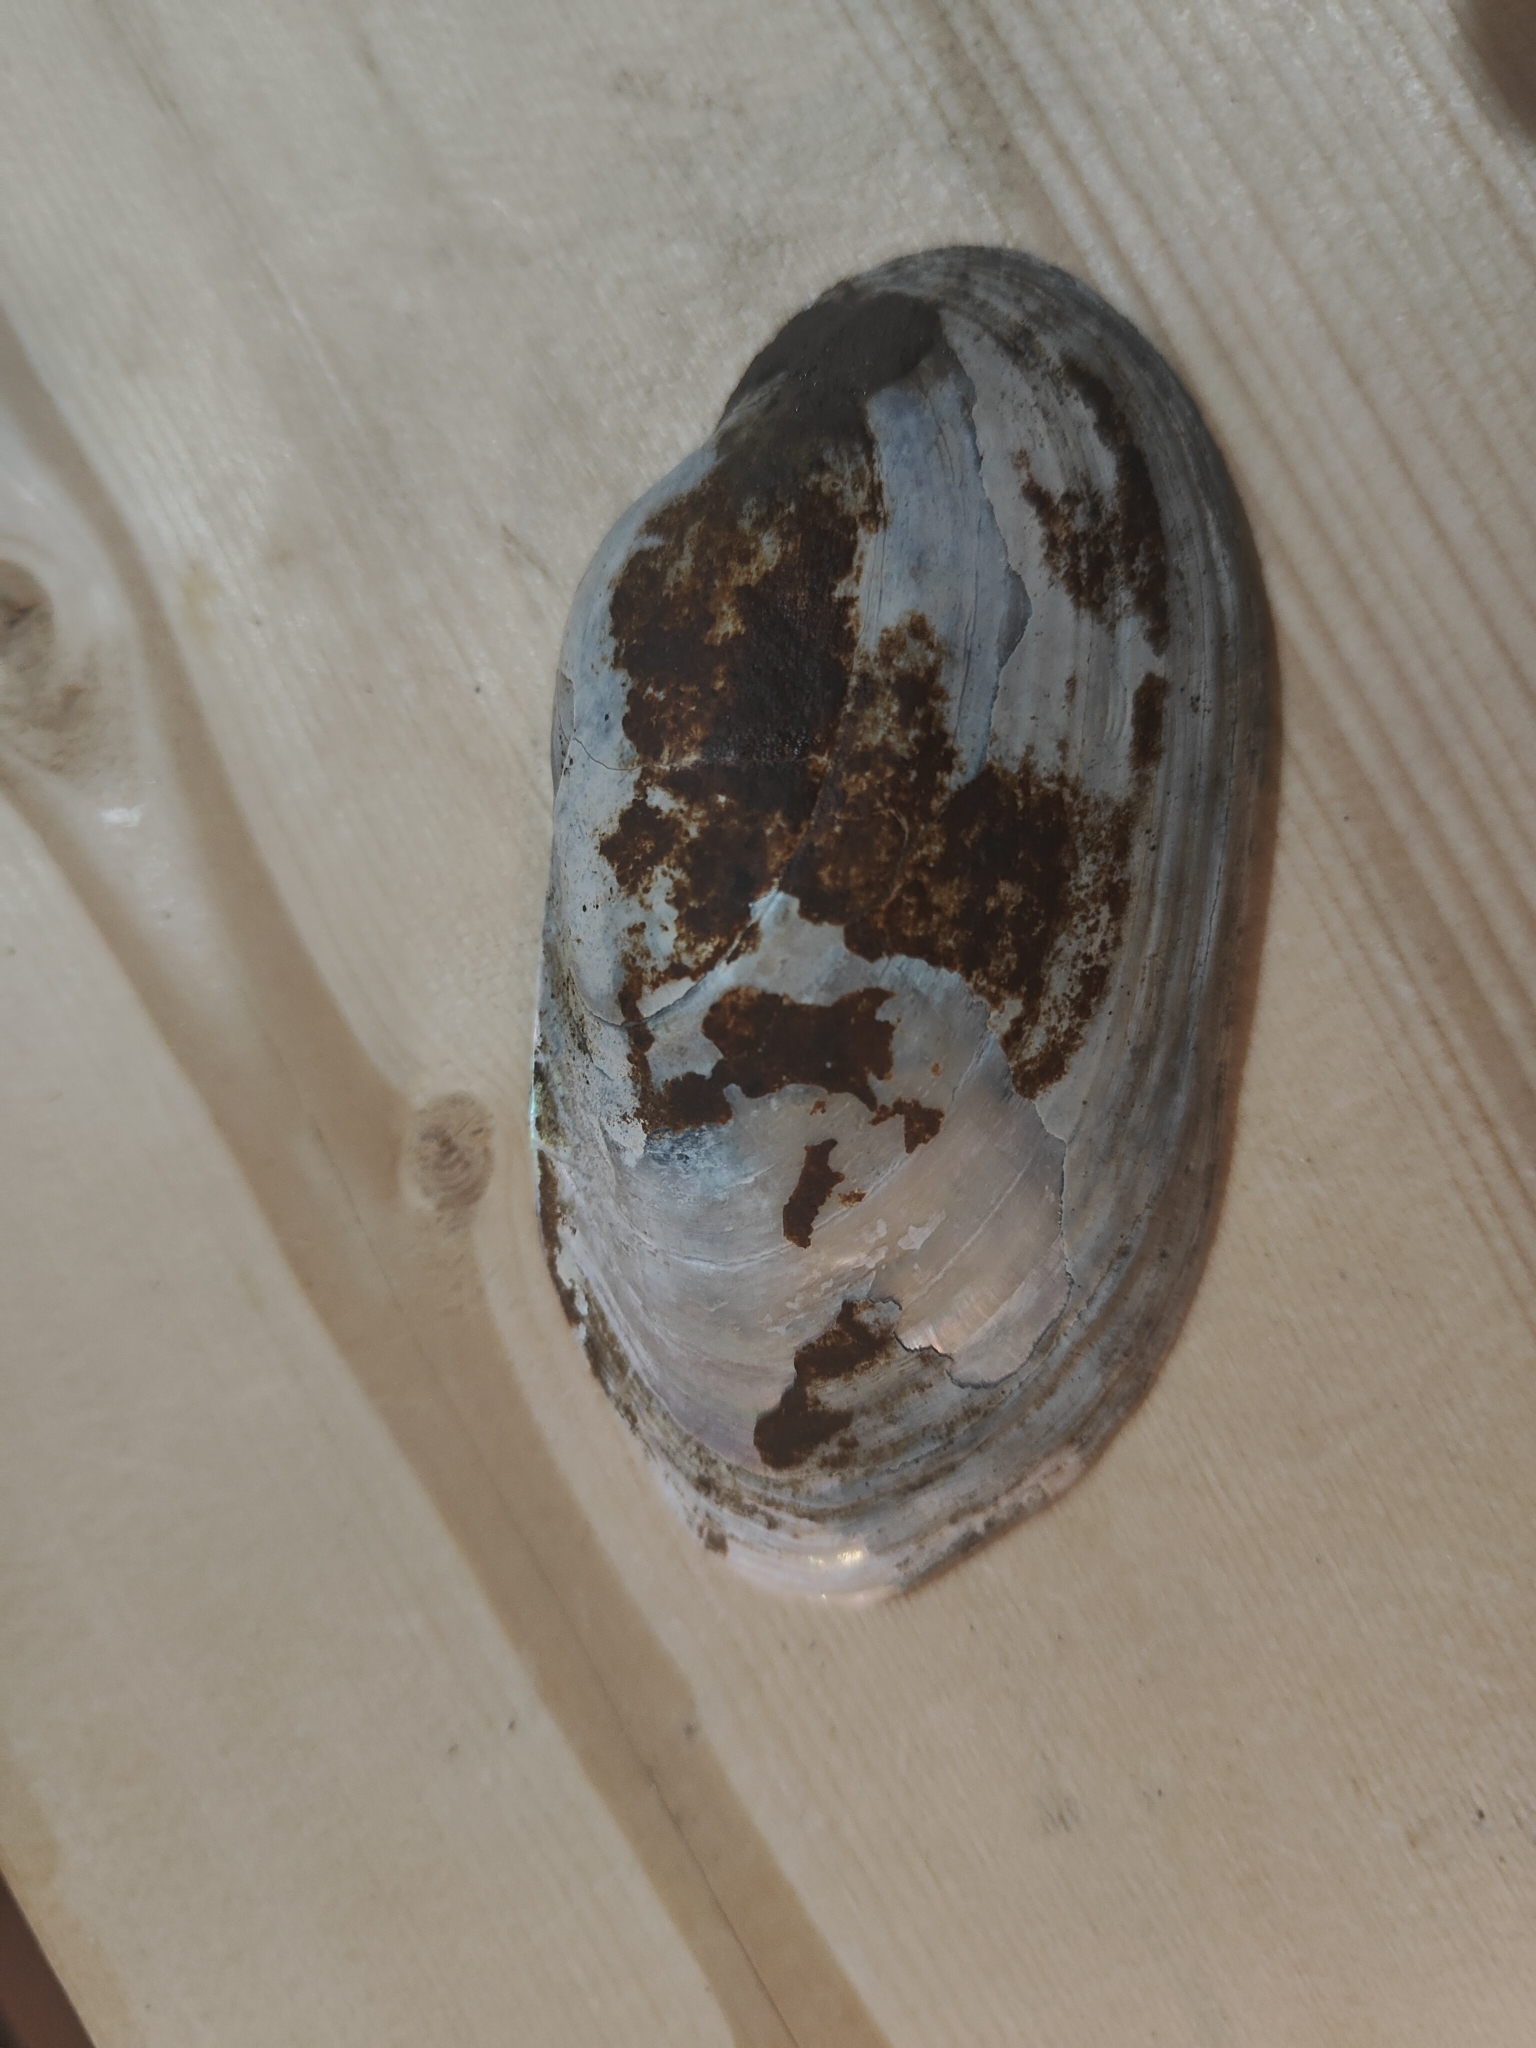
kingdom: Animalia
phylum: Mollusca
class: Bivalvia
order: Unionida
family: Unionidae
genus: Lampsilis
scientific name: Lampsilis siliquoidea
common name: Fatmucket
